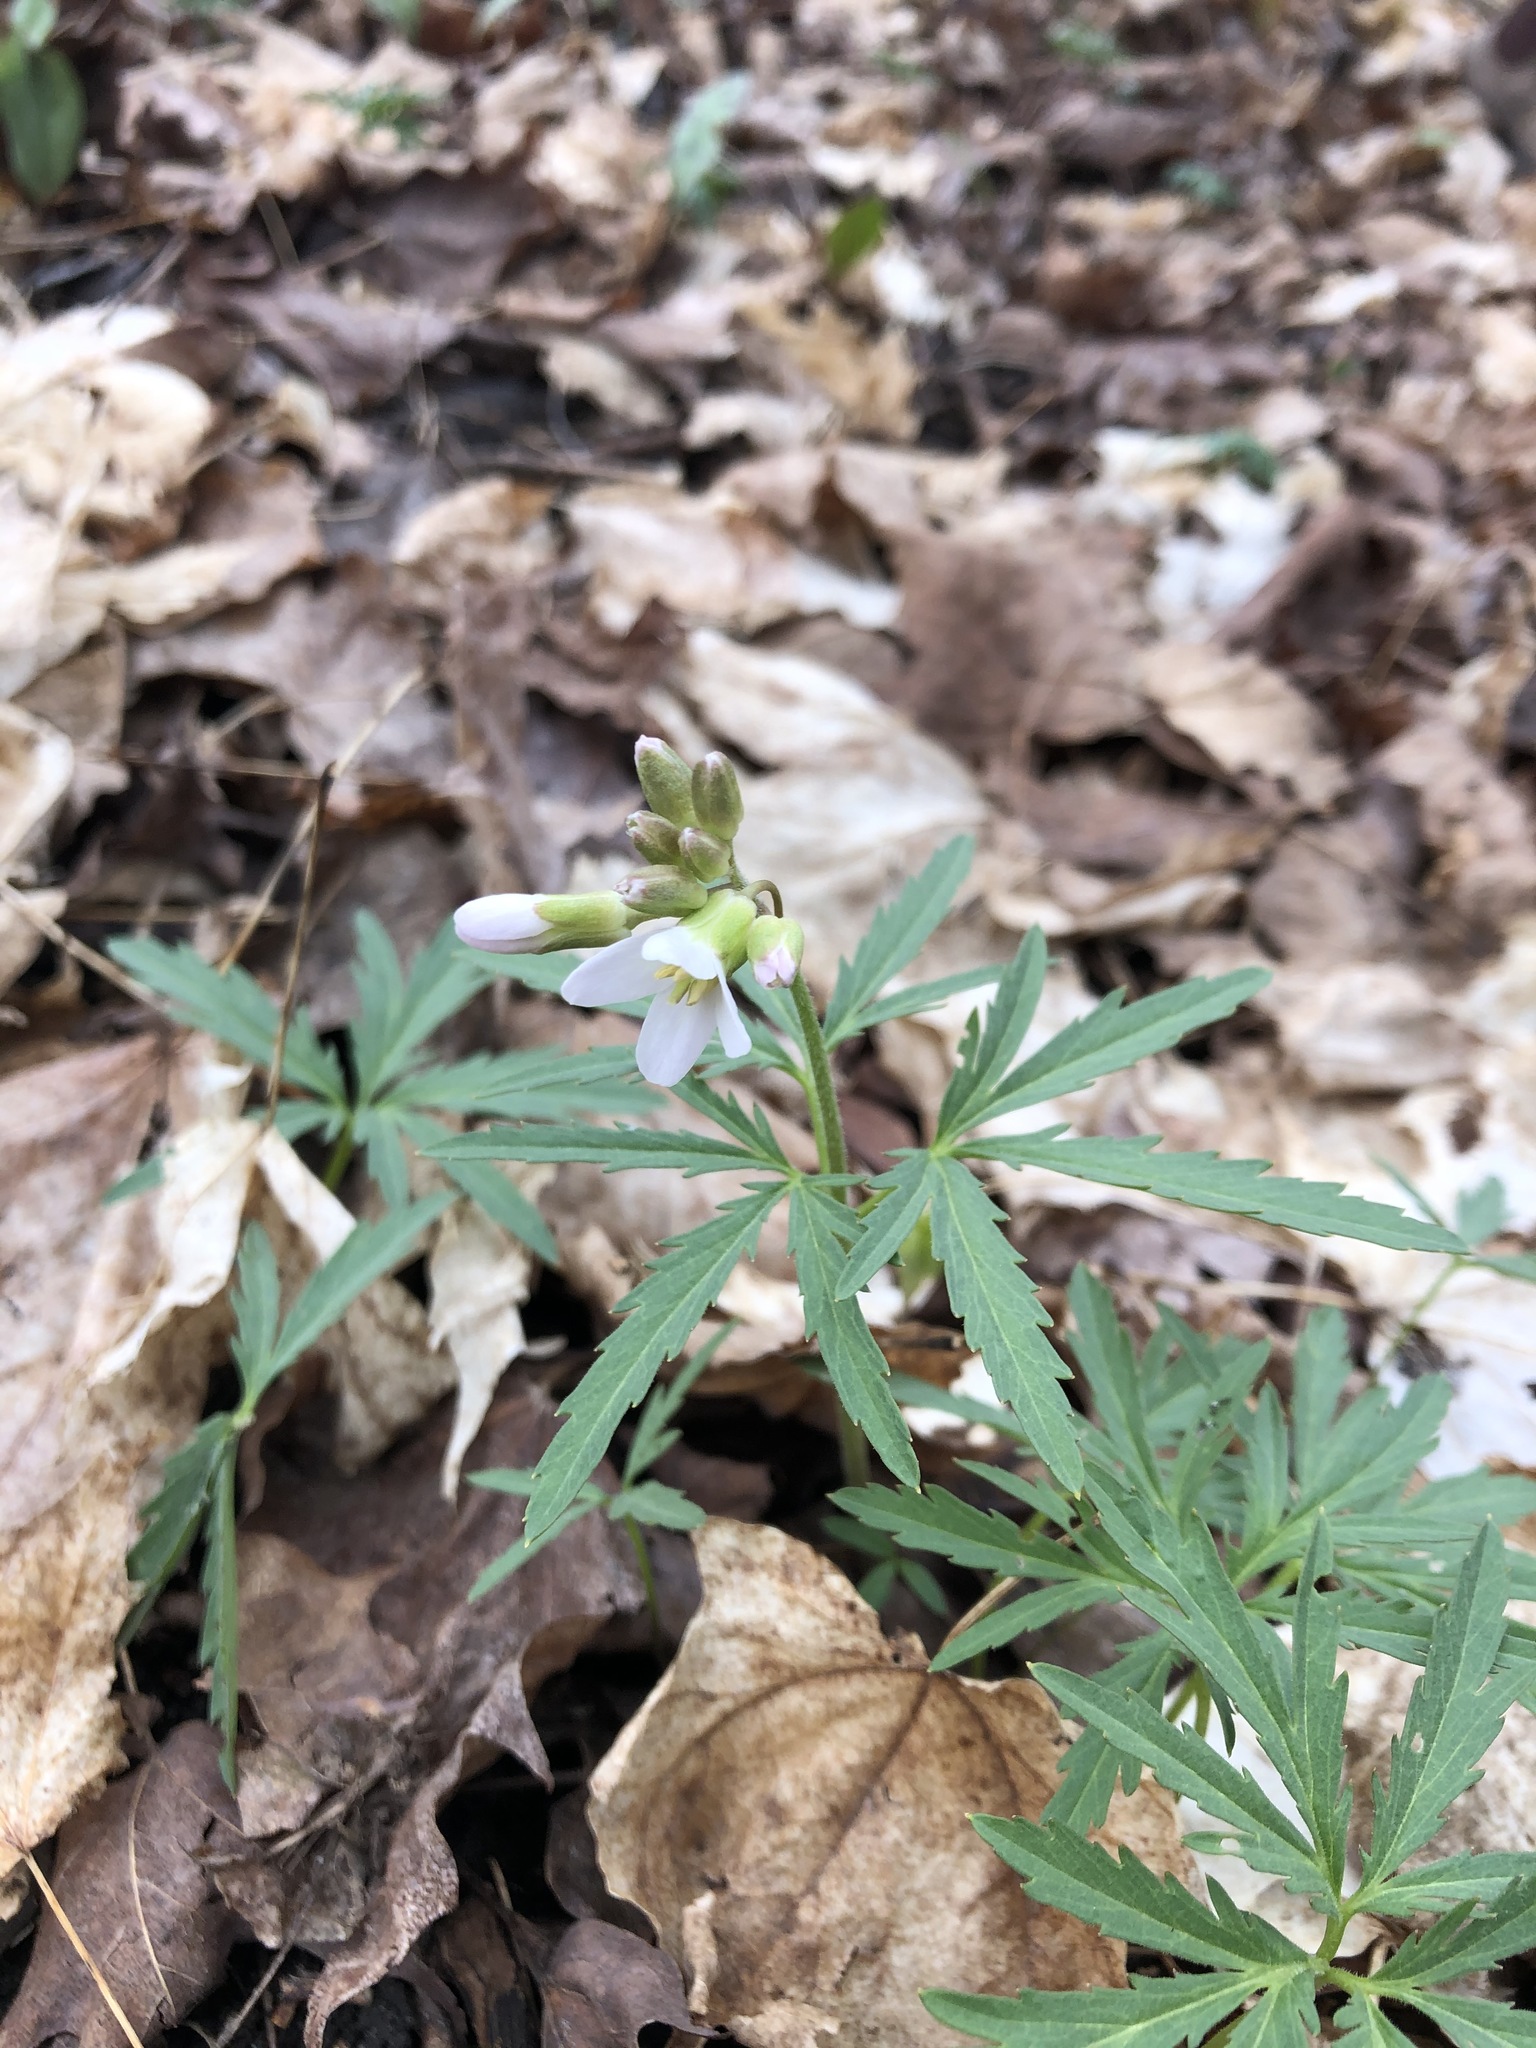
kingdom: Plantae
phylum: Tracheophyta
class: Magnoliopsida
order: Brassicales
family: Brassicaceae
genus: Cardamine
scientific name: Cardamine concatenata
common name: Cut-leaf toothcup
